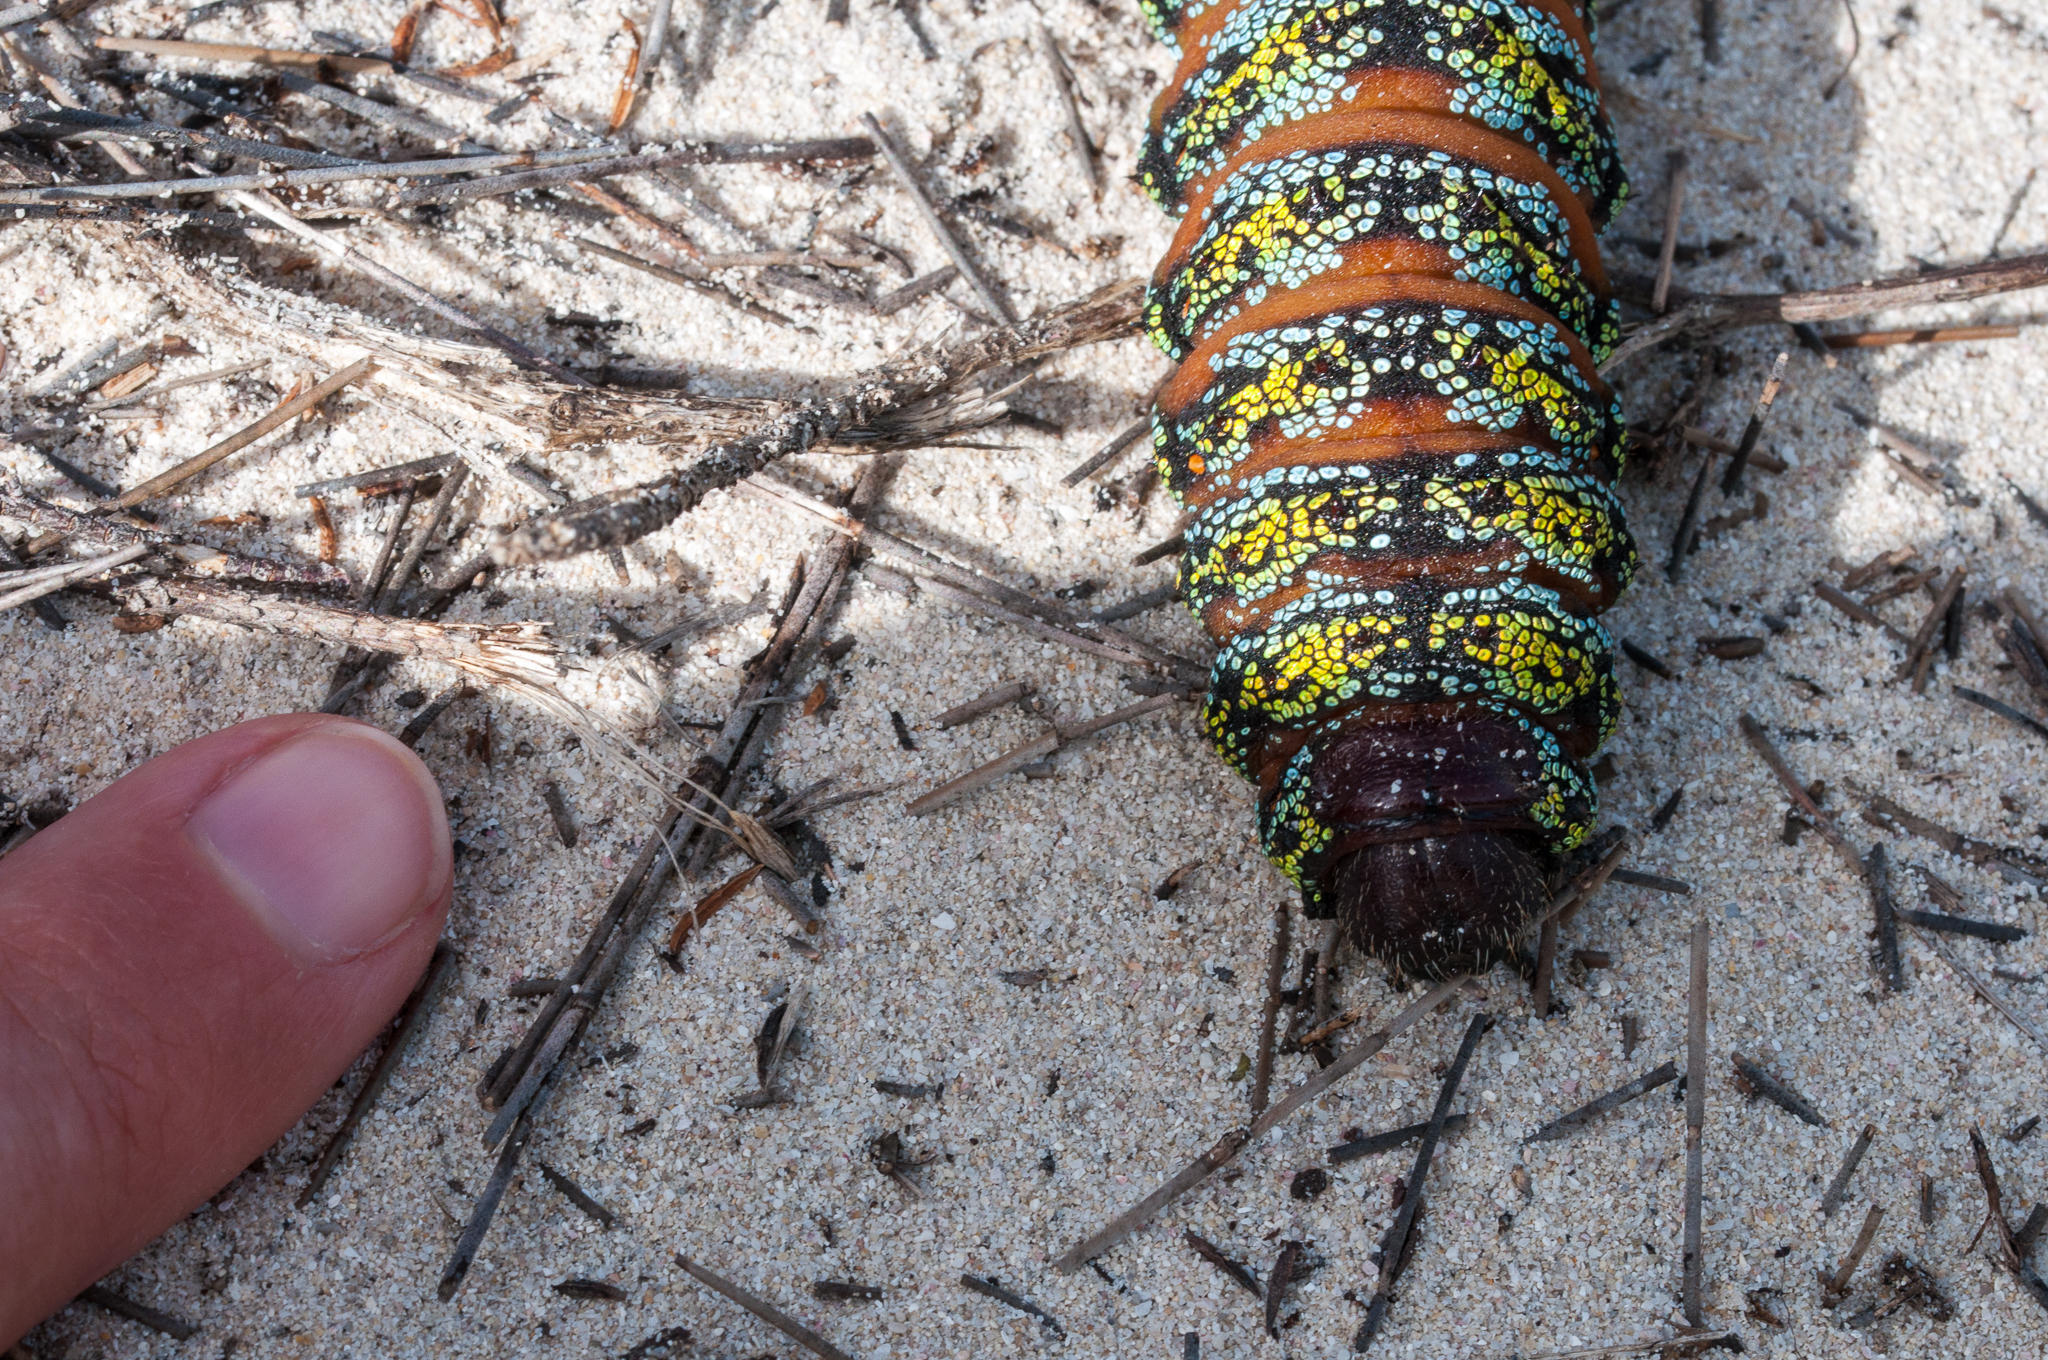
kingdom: Animalia
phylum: Arthropoda
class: Insecta
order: Lepidoptera
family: Saturniidae
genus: Nudaurelia
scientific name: Nudaurelia cytherea
